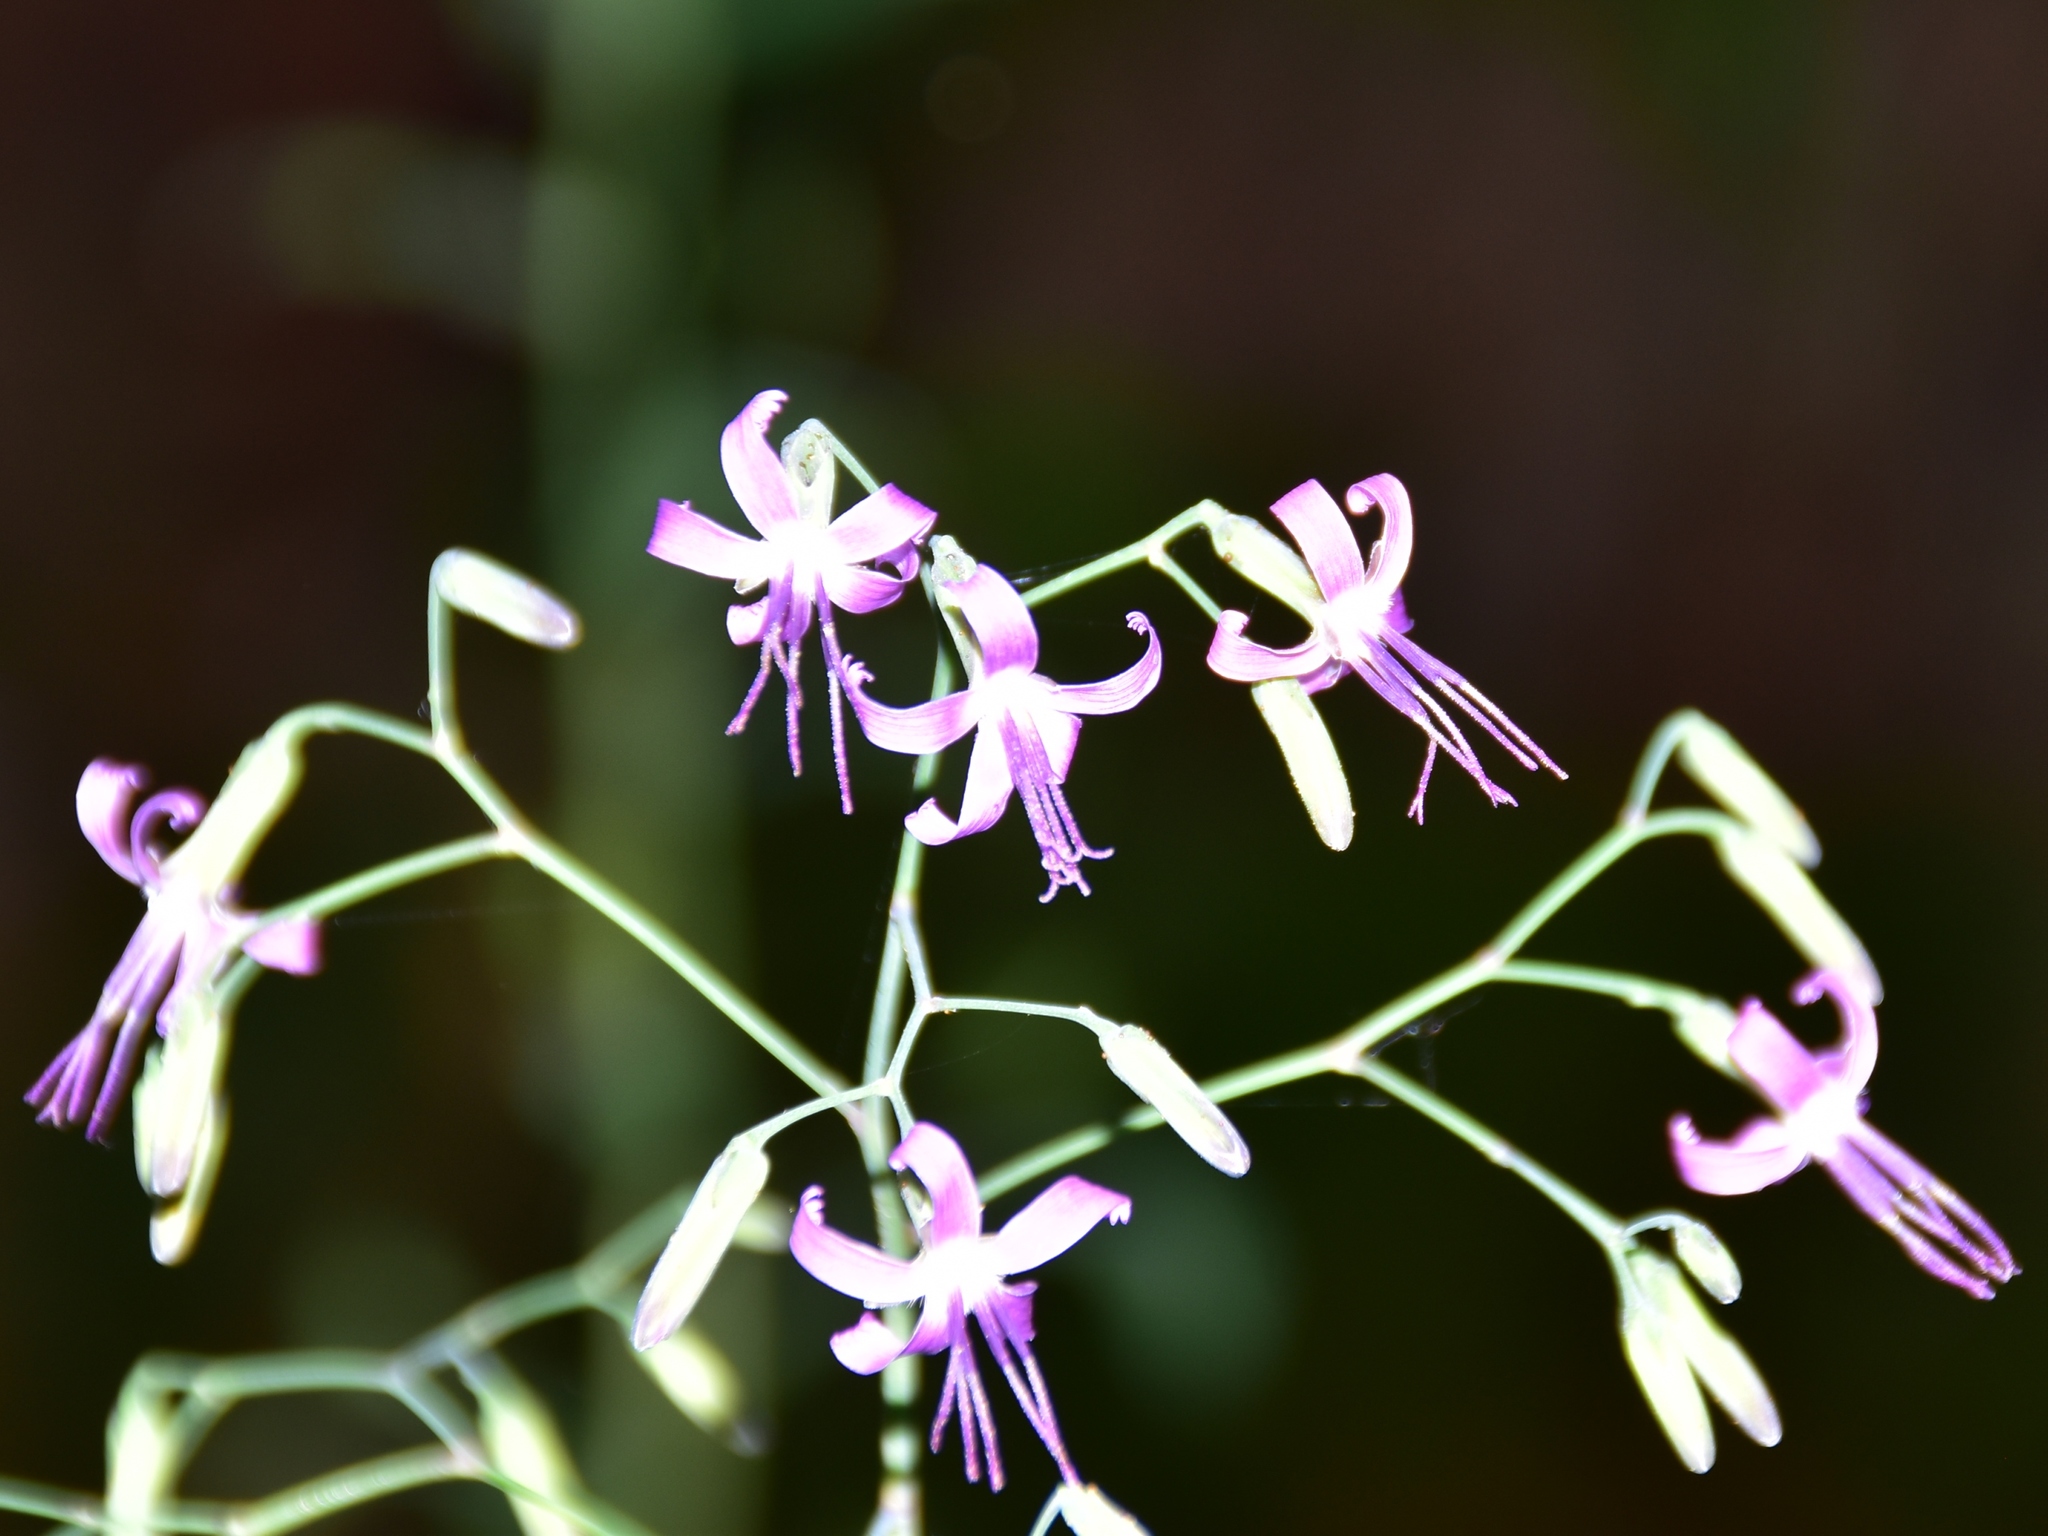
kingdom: Plantae
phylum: Tracheophyta
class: Magnoliopsida
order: Asterales
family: Asteraceae
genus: Prenanthes
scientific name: Prenanthes purpurea
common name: Purple lettuce
